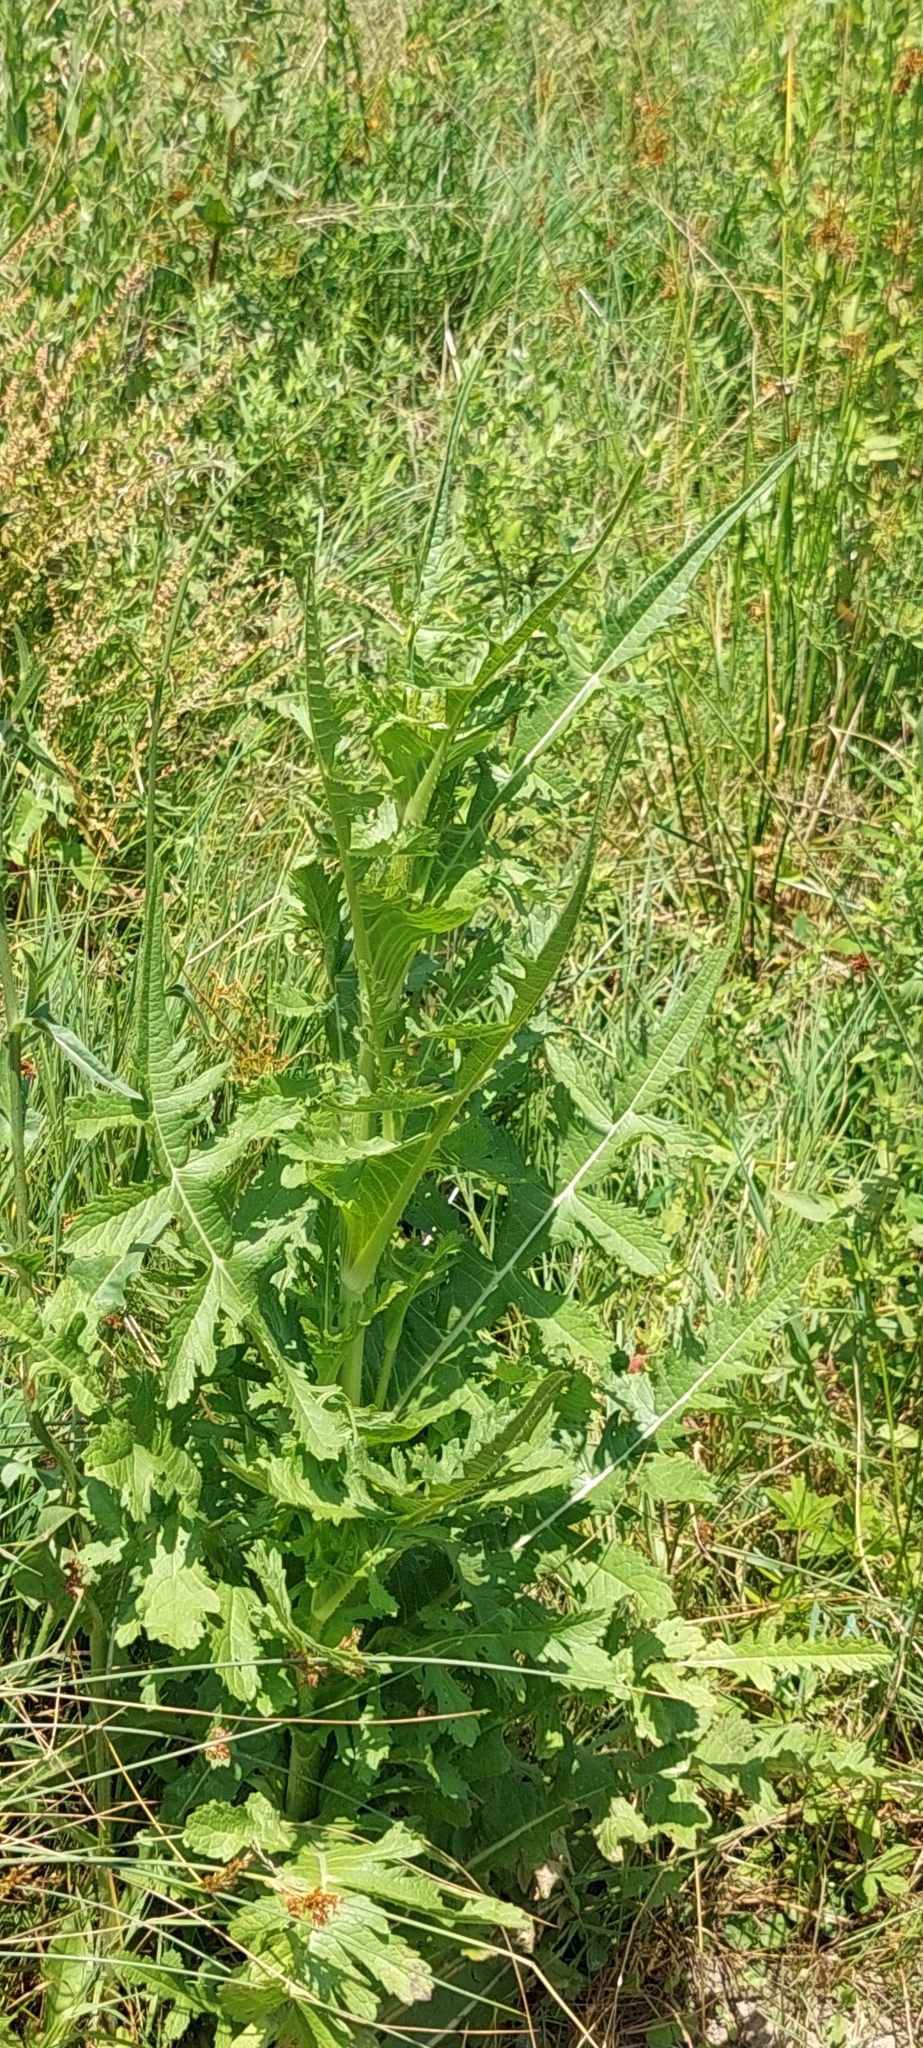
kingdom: Plantae
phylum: Tracheophyta
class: Magnoliopsida
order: Dipsacales
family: Caprifoliaceae
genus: Dipsacus
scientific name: Dipsacus laciniatus
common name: Cut-leaved teasel
